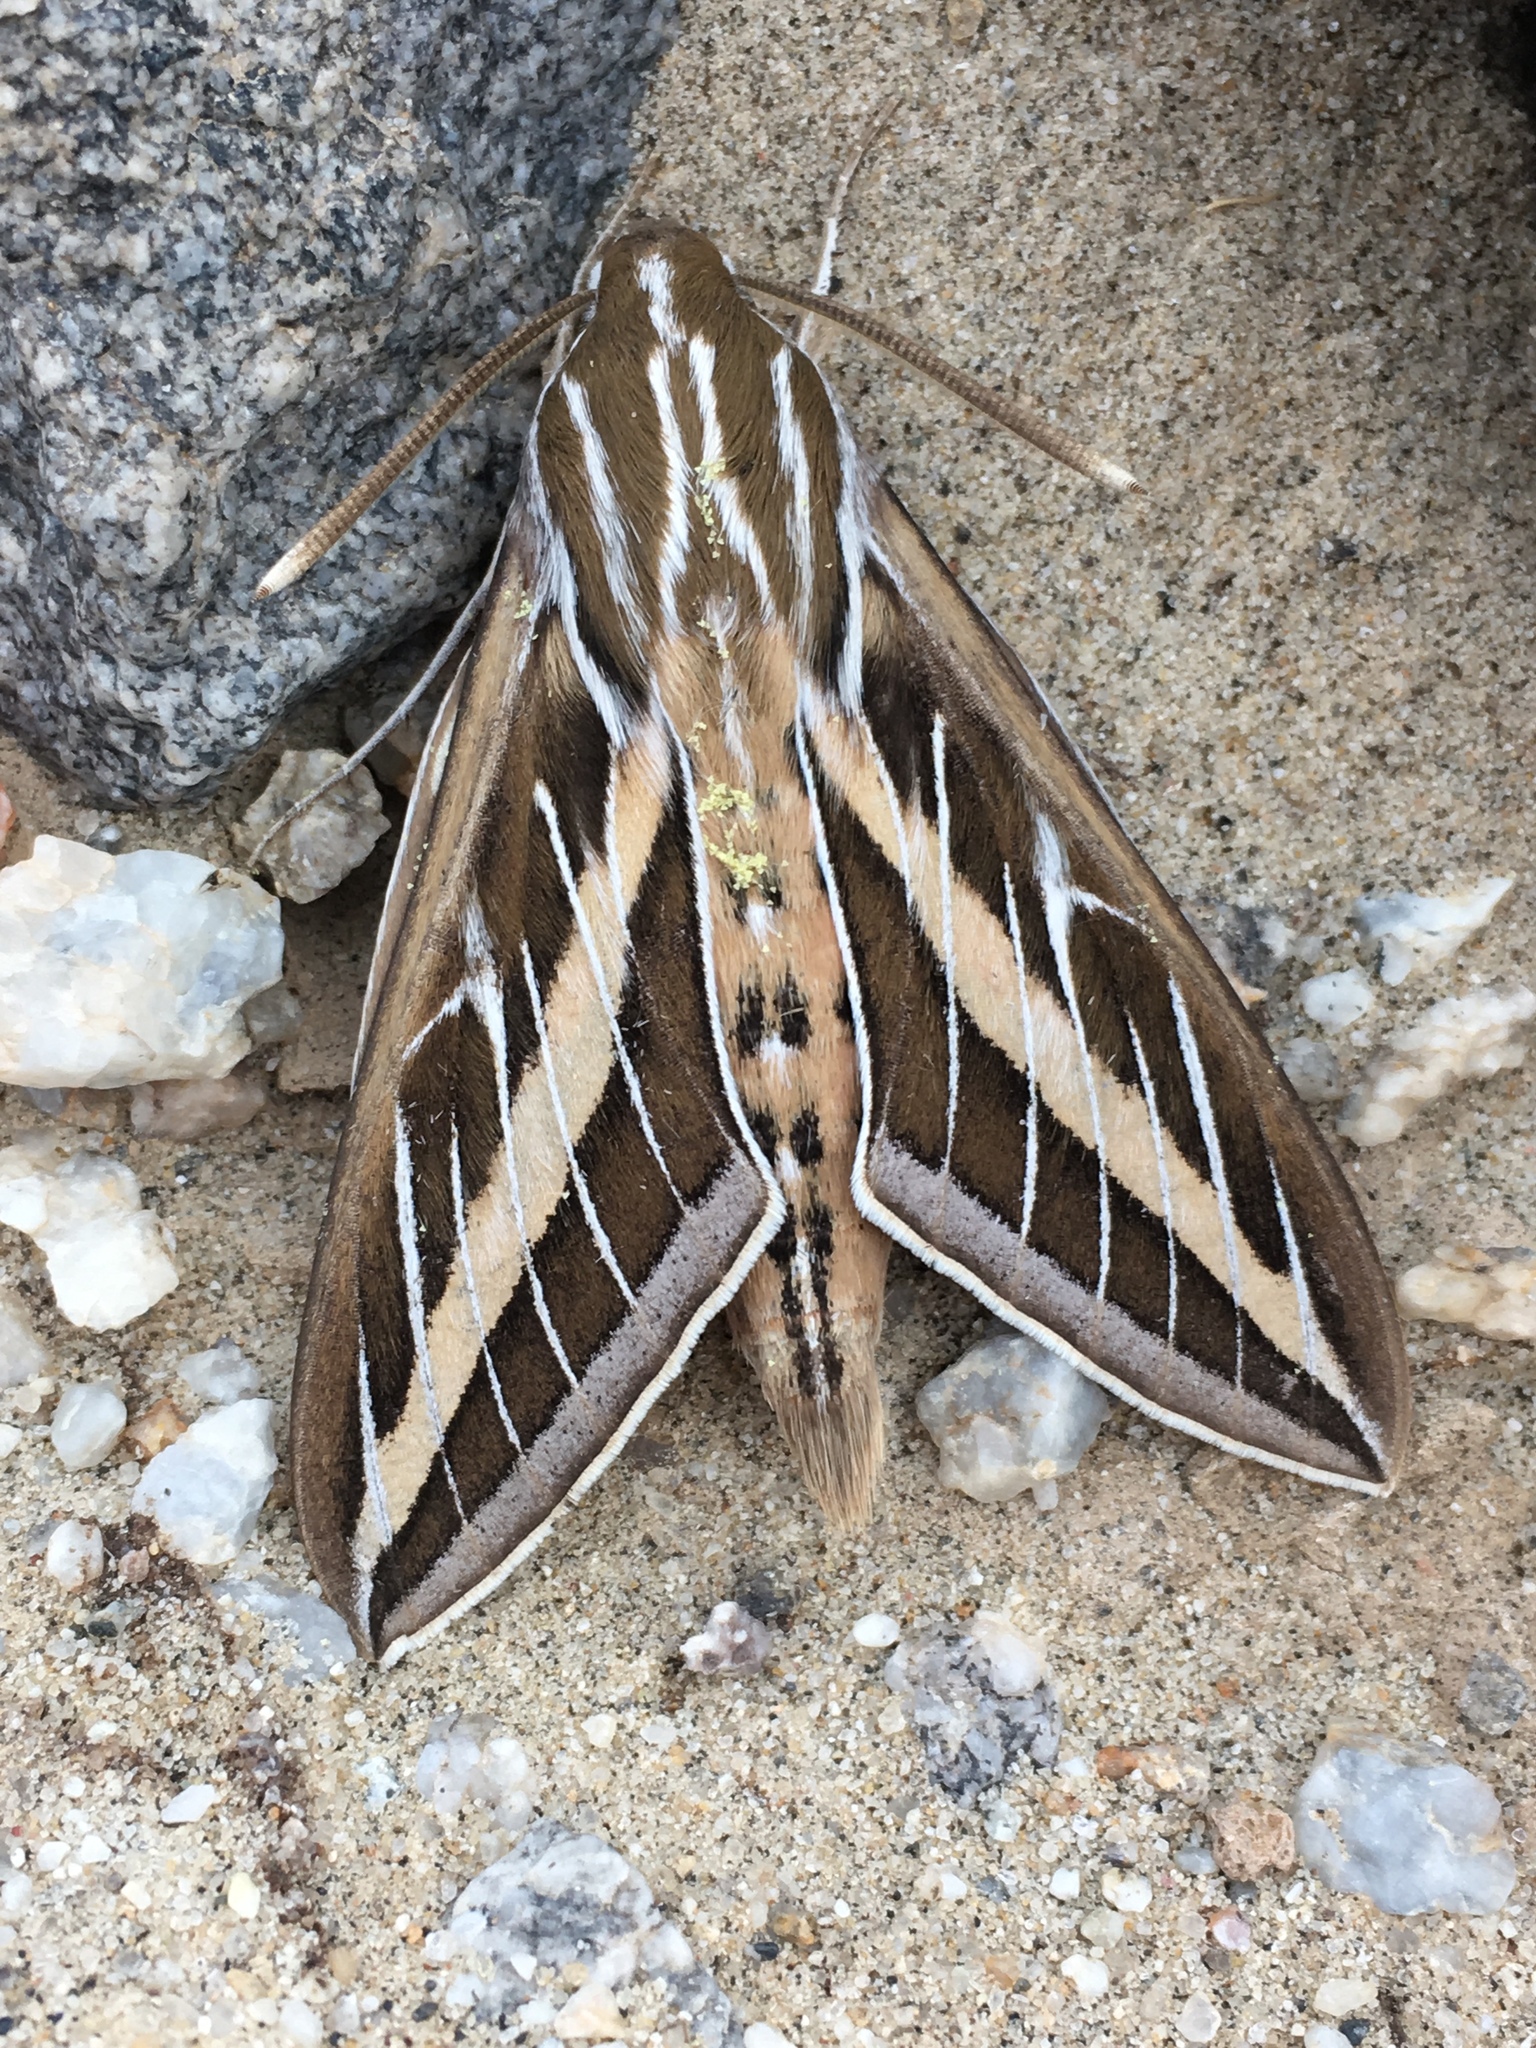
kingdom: Animalia
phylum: Arthropoda
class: Insecta
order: Lepidoptera
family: Sphingidae
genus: Hyles
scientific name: Hyles lineata
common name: White-lined sphinx
